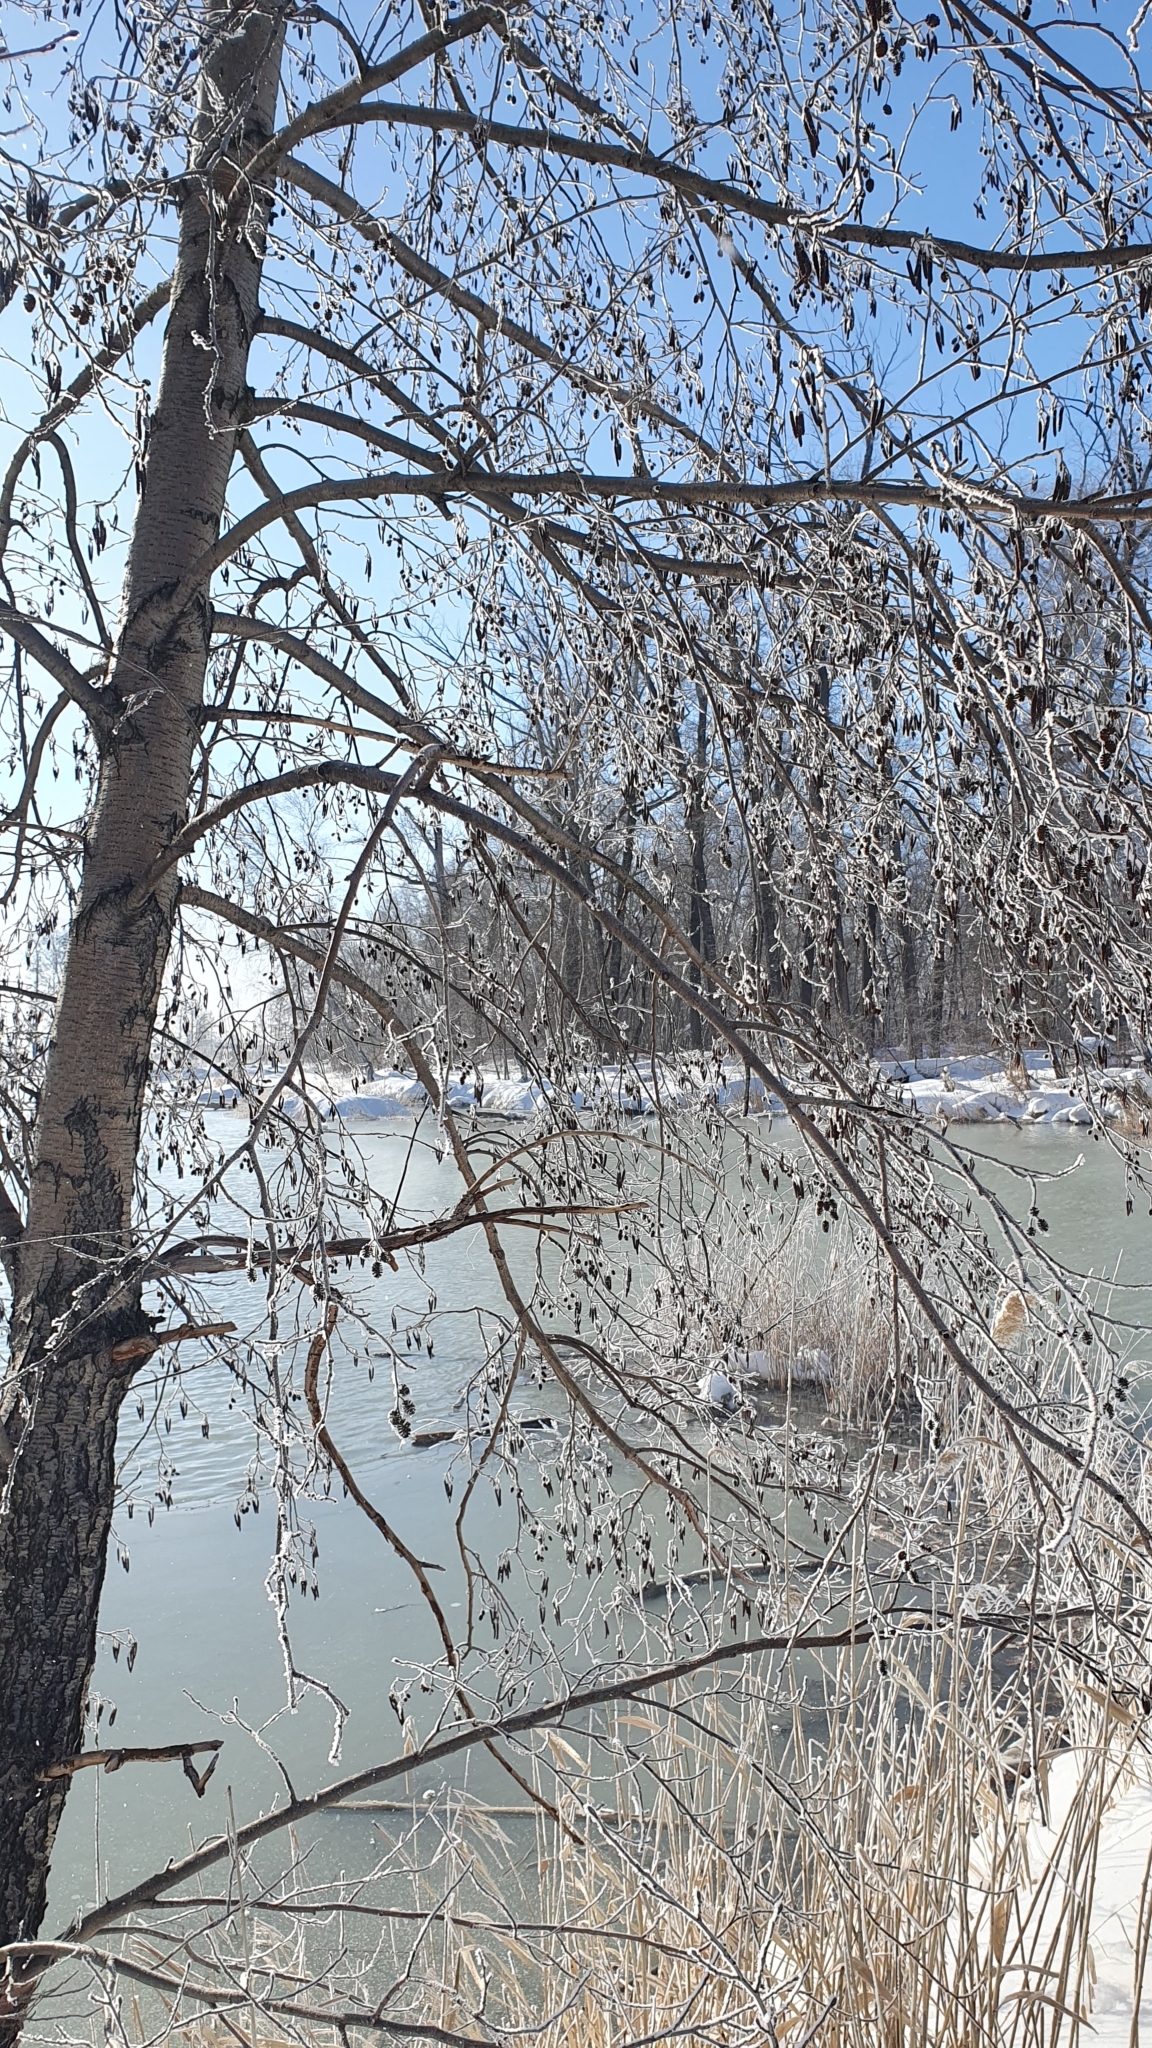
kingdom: Plantae
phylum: Tracheophyta
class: Magnoliopsida
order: Fagales
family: Betulaceae
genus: Alnus
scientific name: Alnus glutinosa
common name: Black alder
